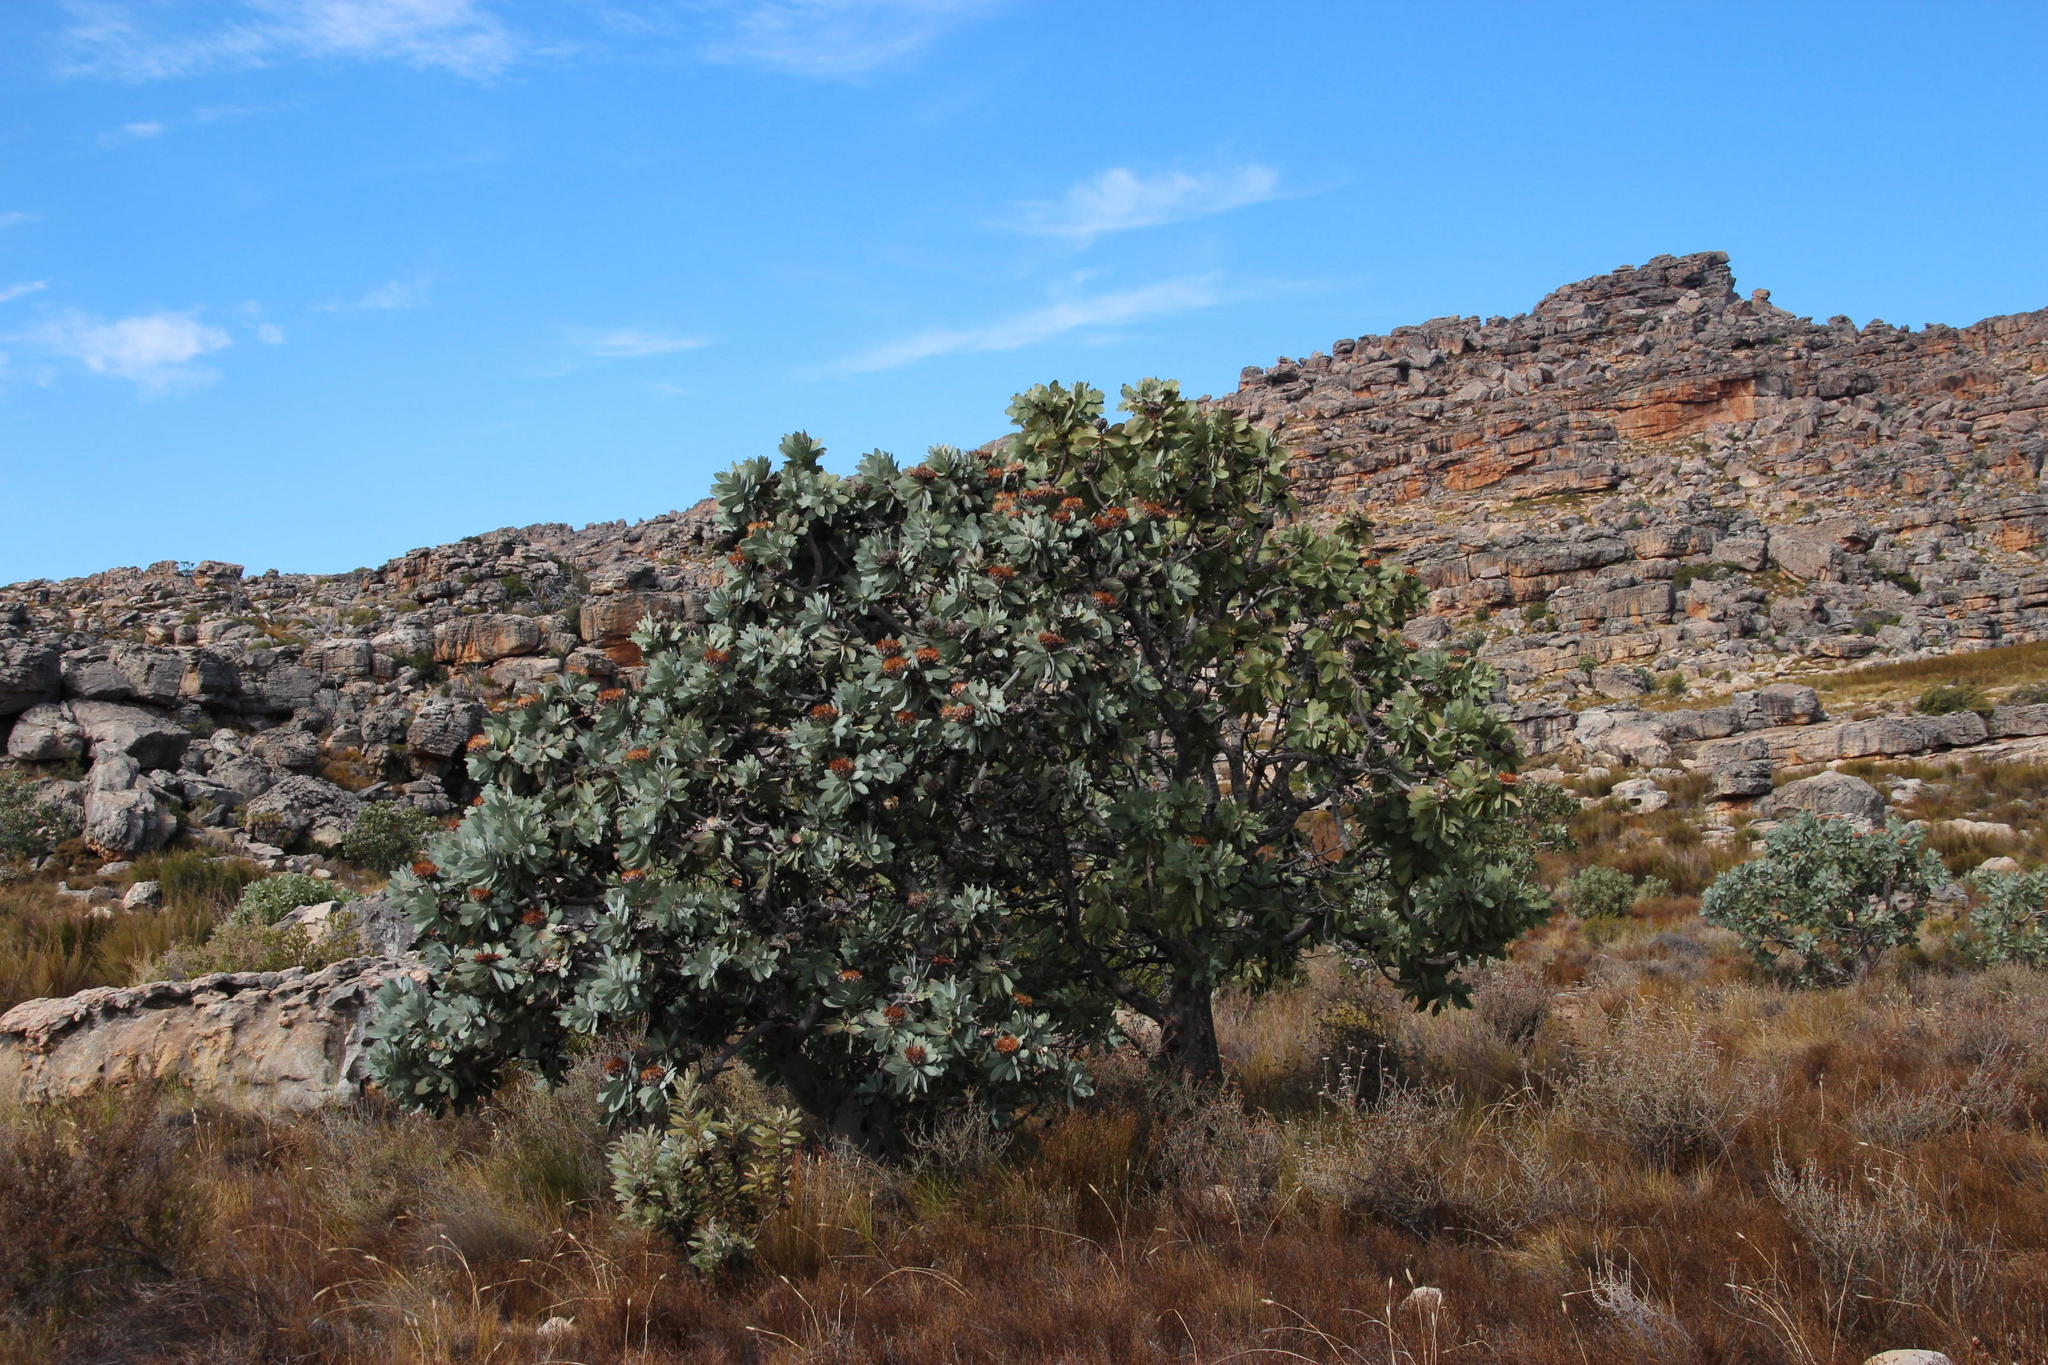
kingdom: Plantae
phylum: Tracheophyta
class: Magnoliopsida
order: Proteales
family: Proteaceae
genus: Protea
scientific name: Protea nitida
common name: Tree protea
